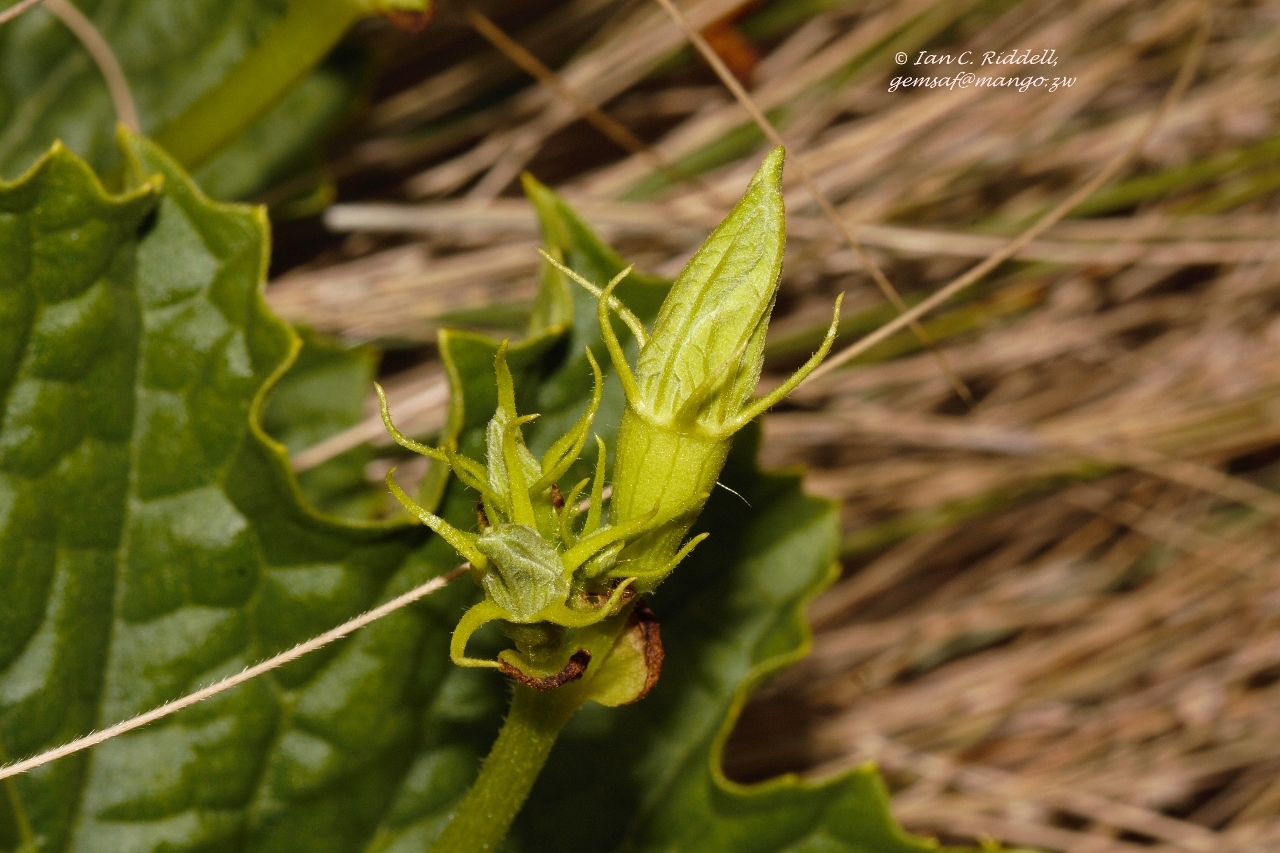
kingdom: Plantae
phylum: Tracheophyta
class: Magnoliopsida
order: Cucurbitales
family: Cucurbitaceae
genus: Peponium
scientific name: Peponium chirindense
